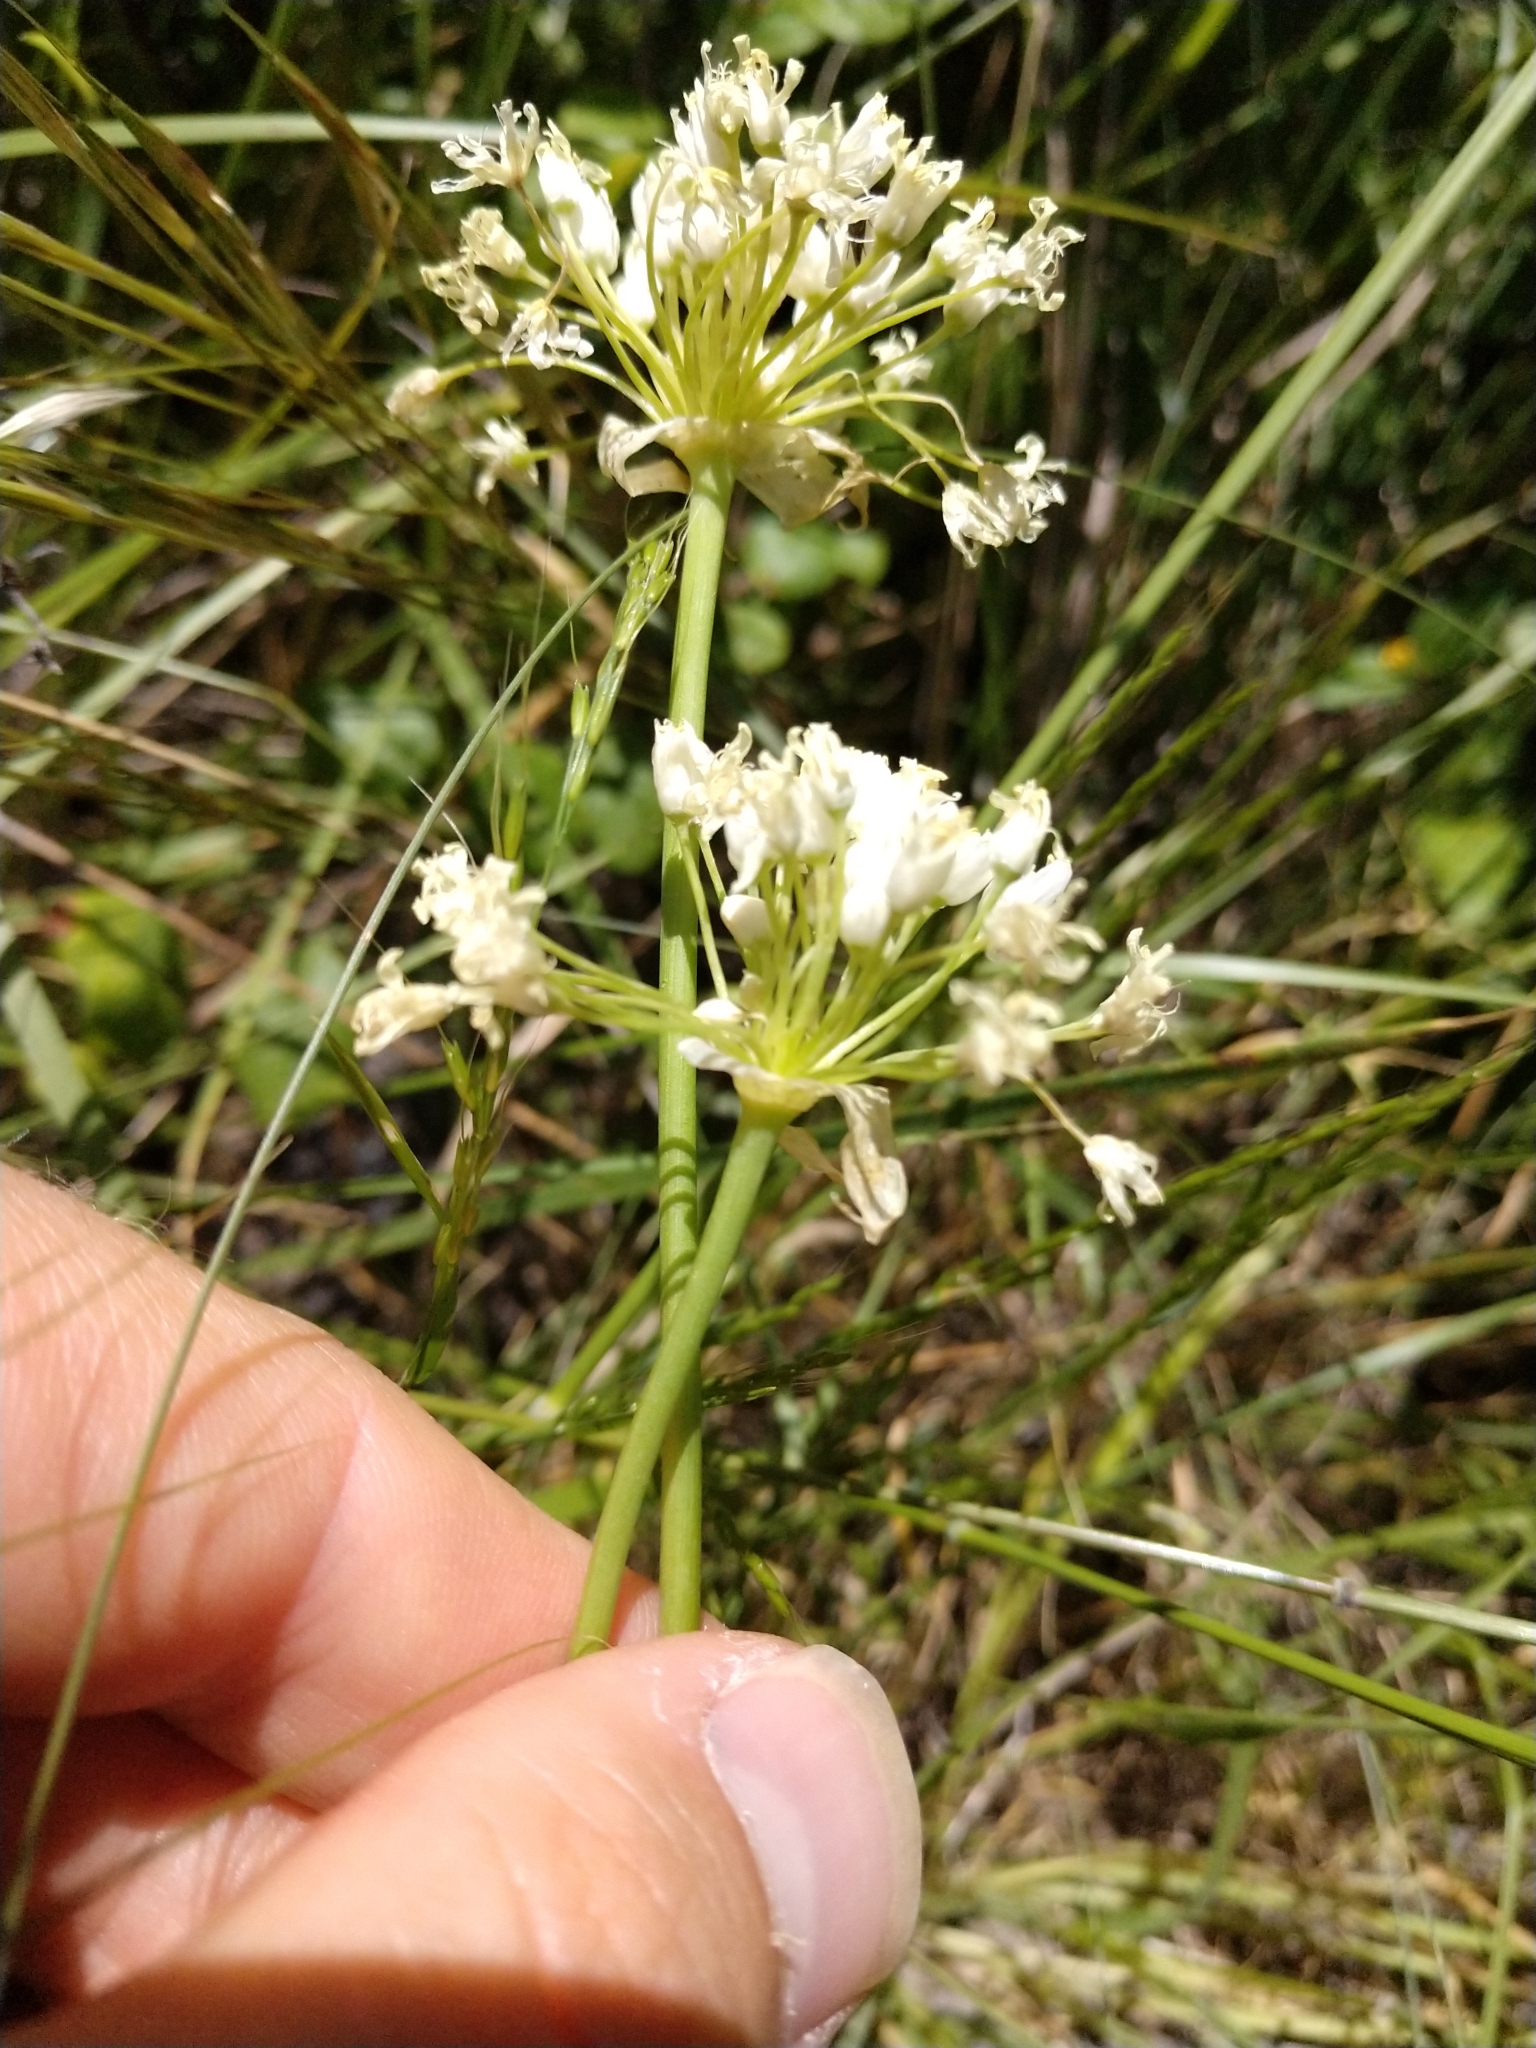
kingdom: Plantae
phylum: Tracheophyta
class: Liliopsida
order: Asparagales
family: Amaryllidaceae
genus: Allium
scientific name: Allium canadense
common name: Meadow garlic
